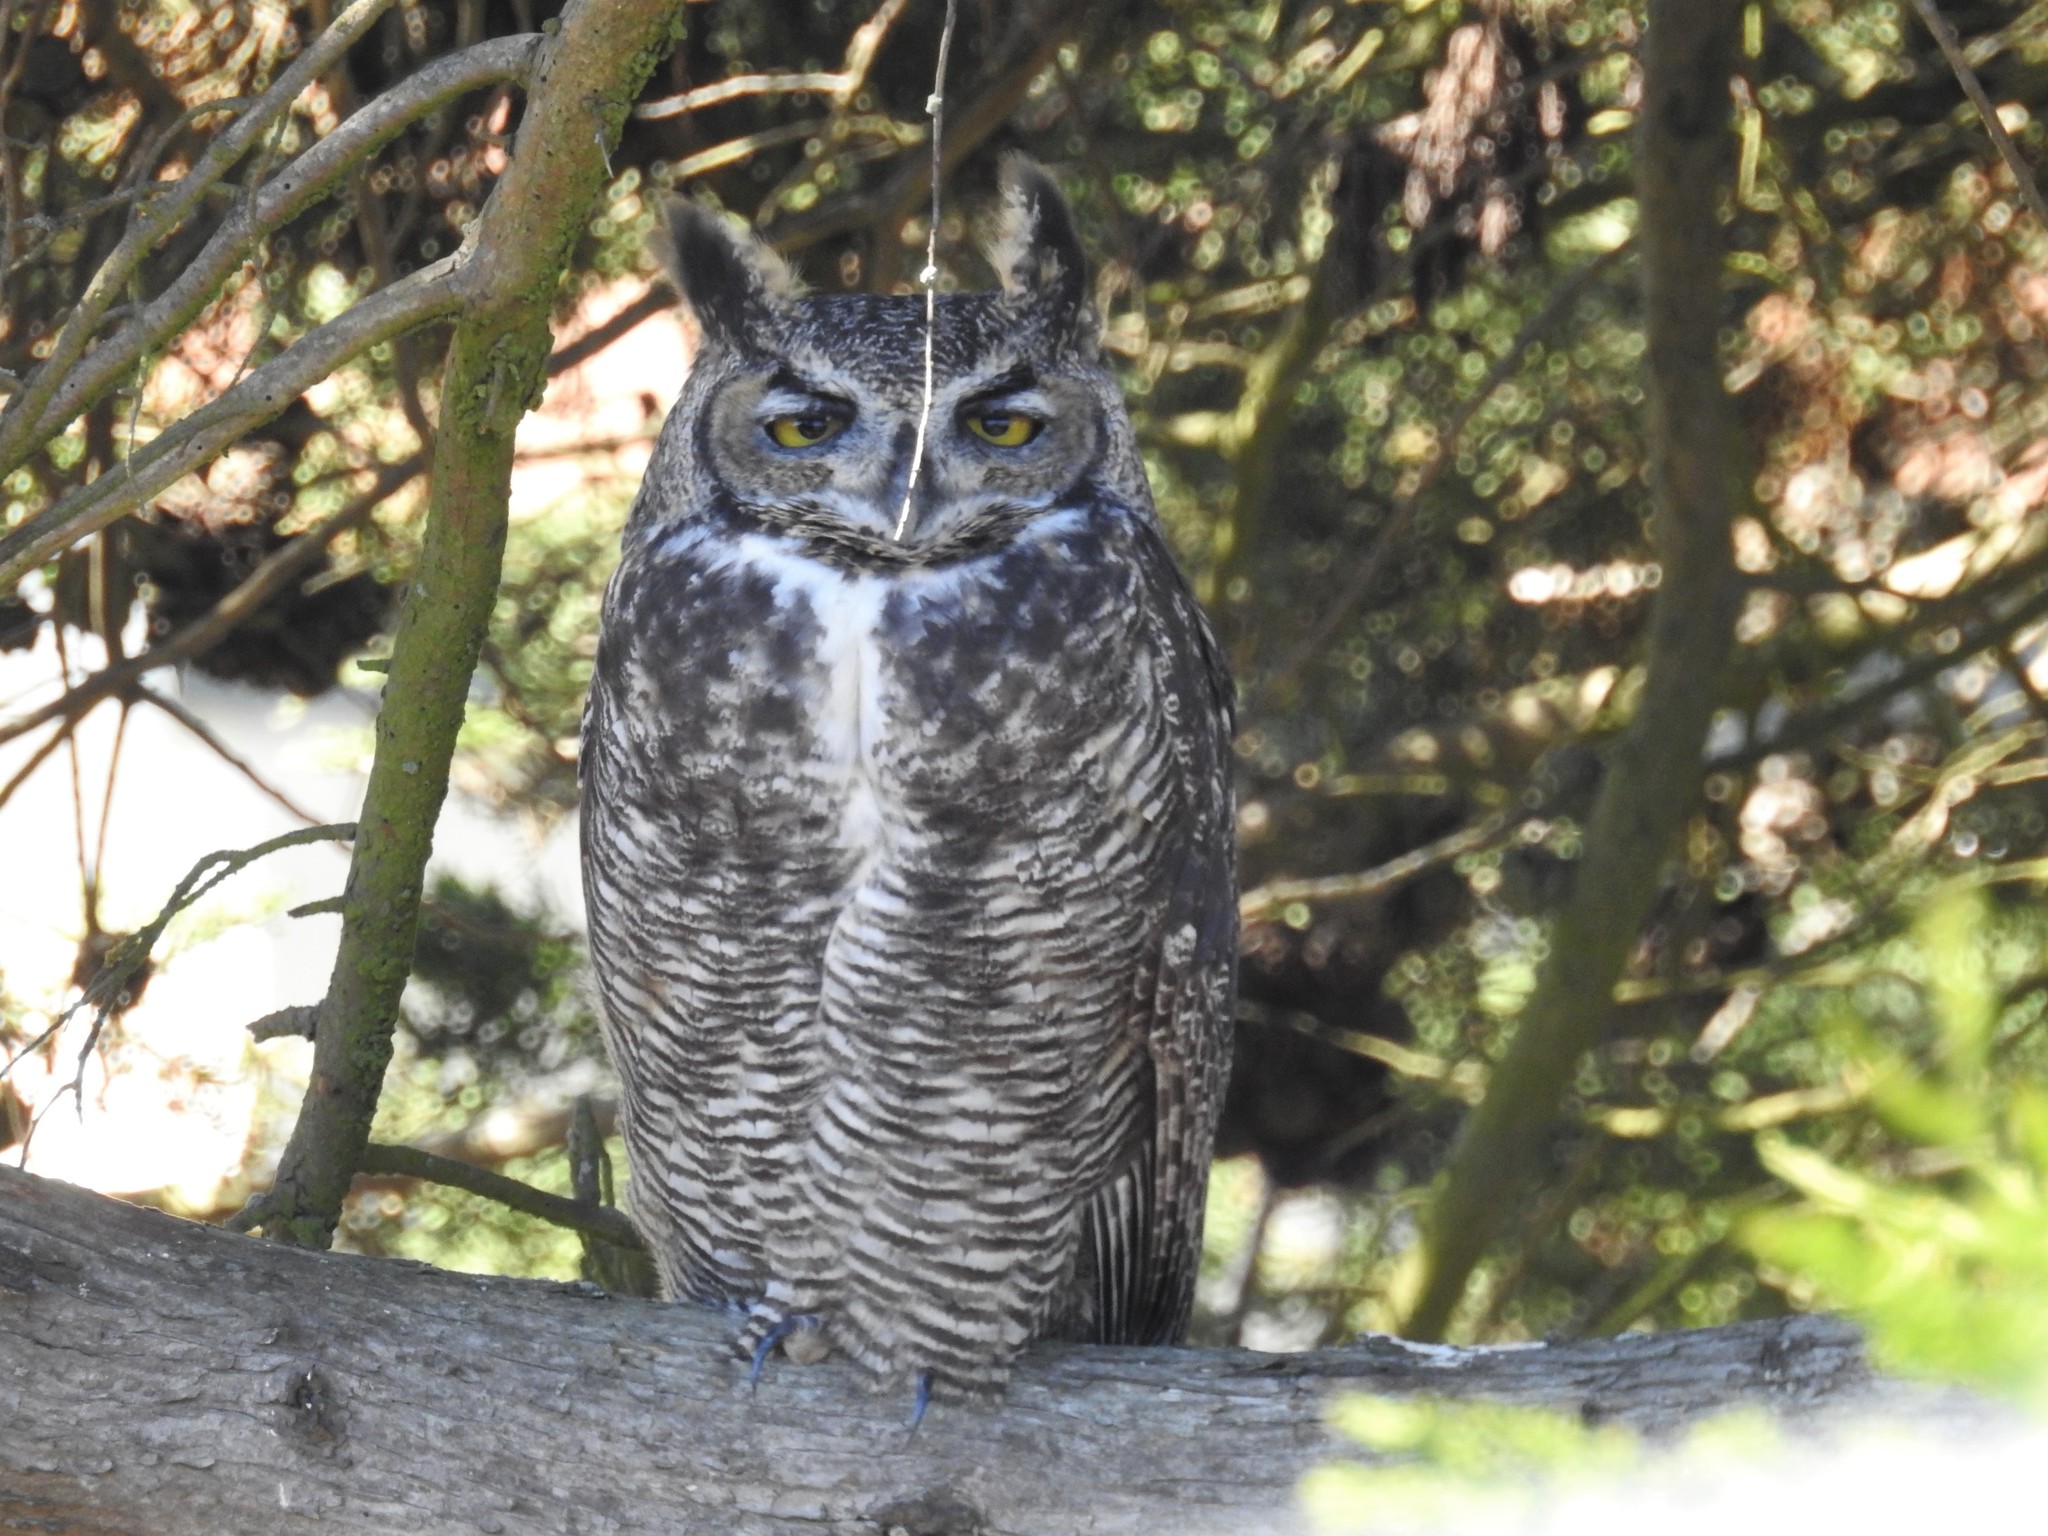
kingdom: Animalia
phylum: Chordata
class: Aves
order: Strigiformes
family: Strigidae
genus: Bubo
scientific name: Bubo virginianus
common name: Great horned owl
